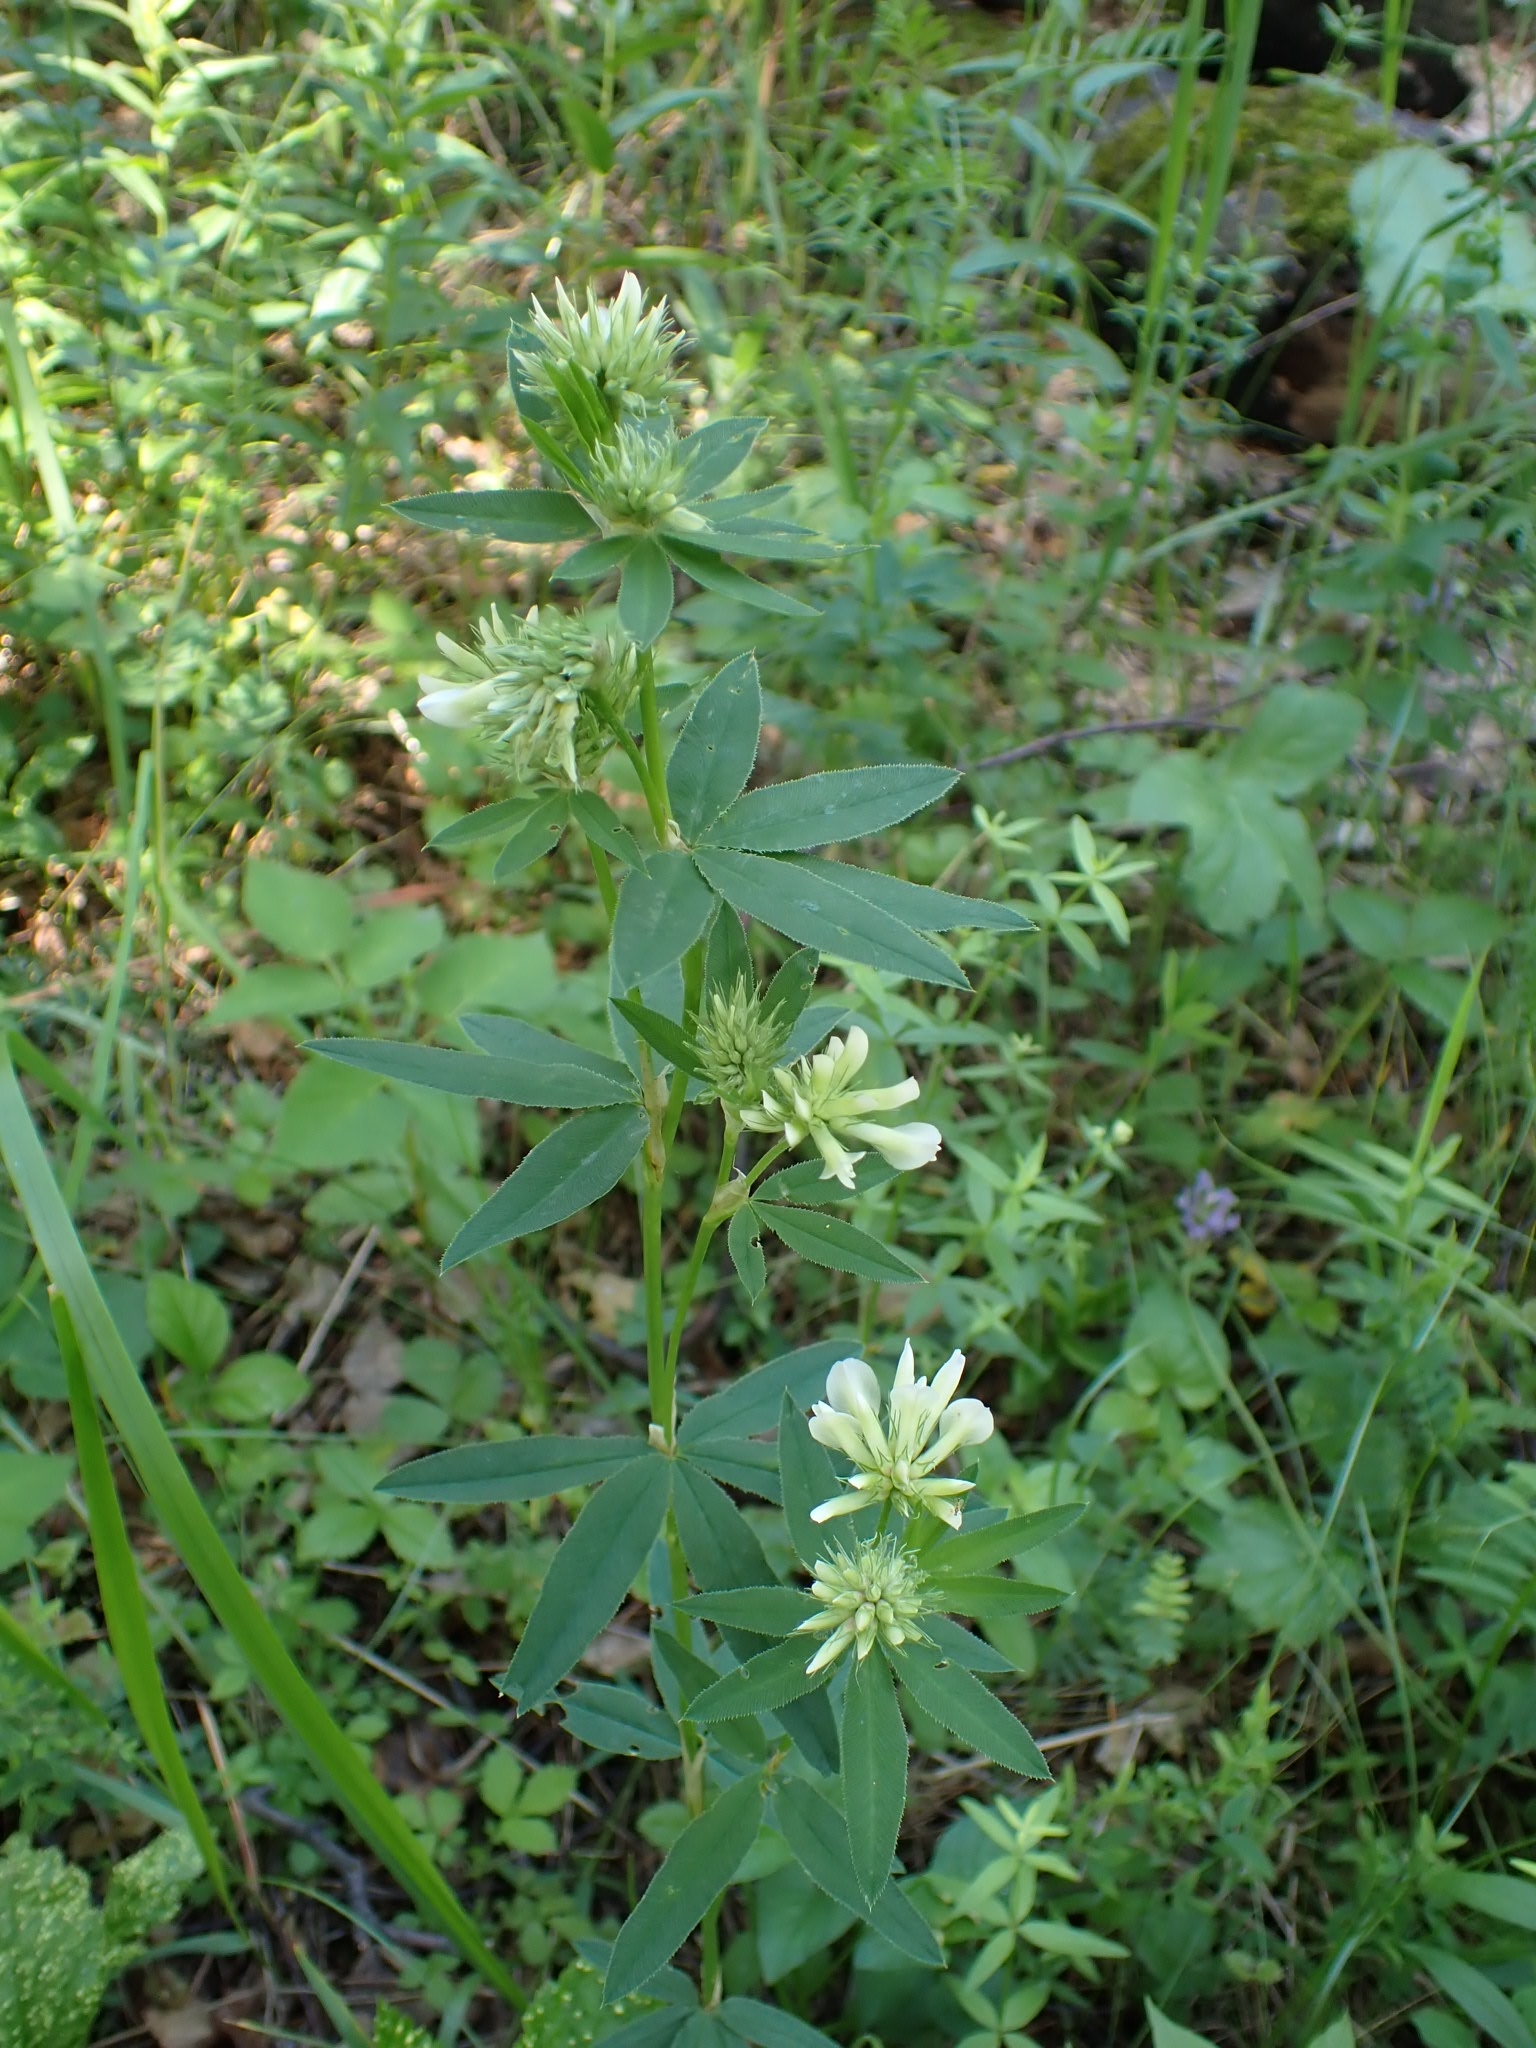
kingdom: Plantae
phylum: Tracheophyta
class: Magnoliopsida
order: Fabales
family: Fabaceae
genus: Trifolium
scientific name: Trifolium lupinaster
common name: Lupine clover
